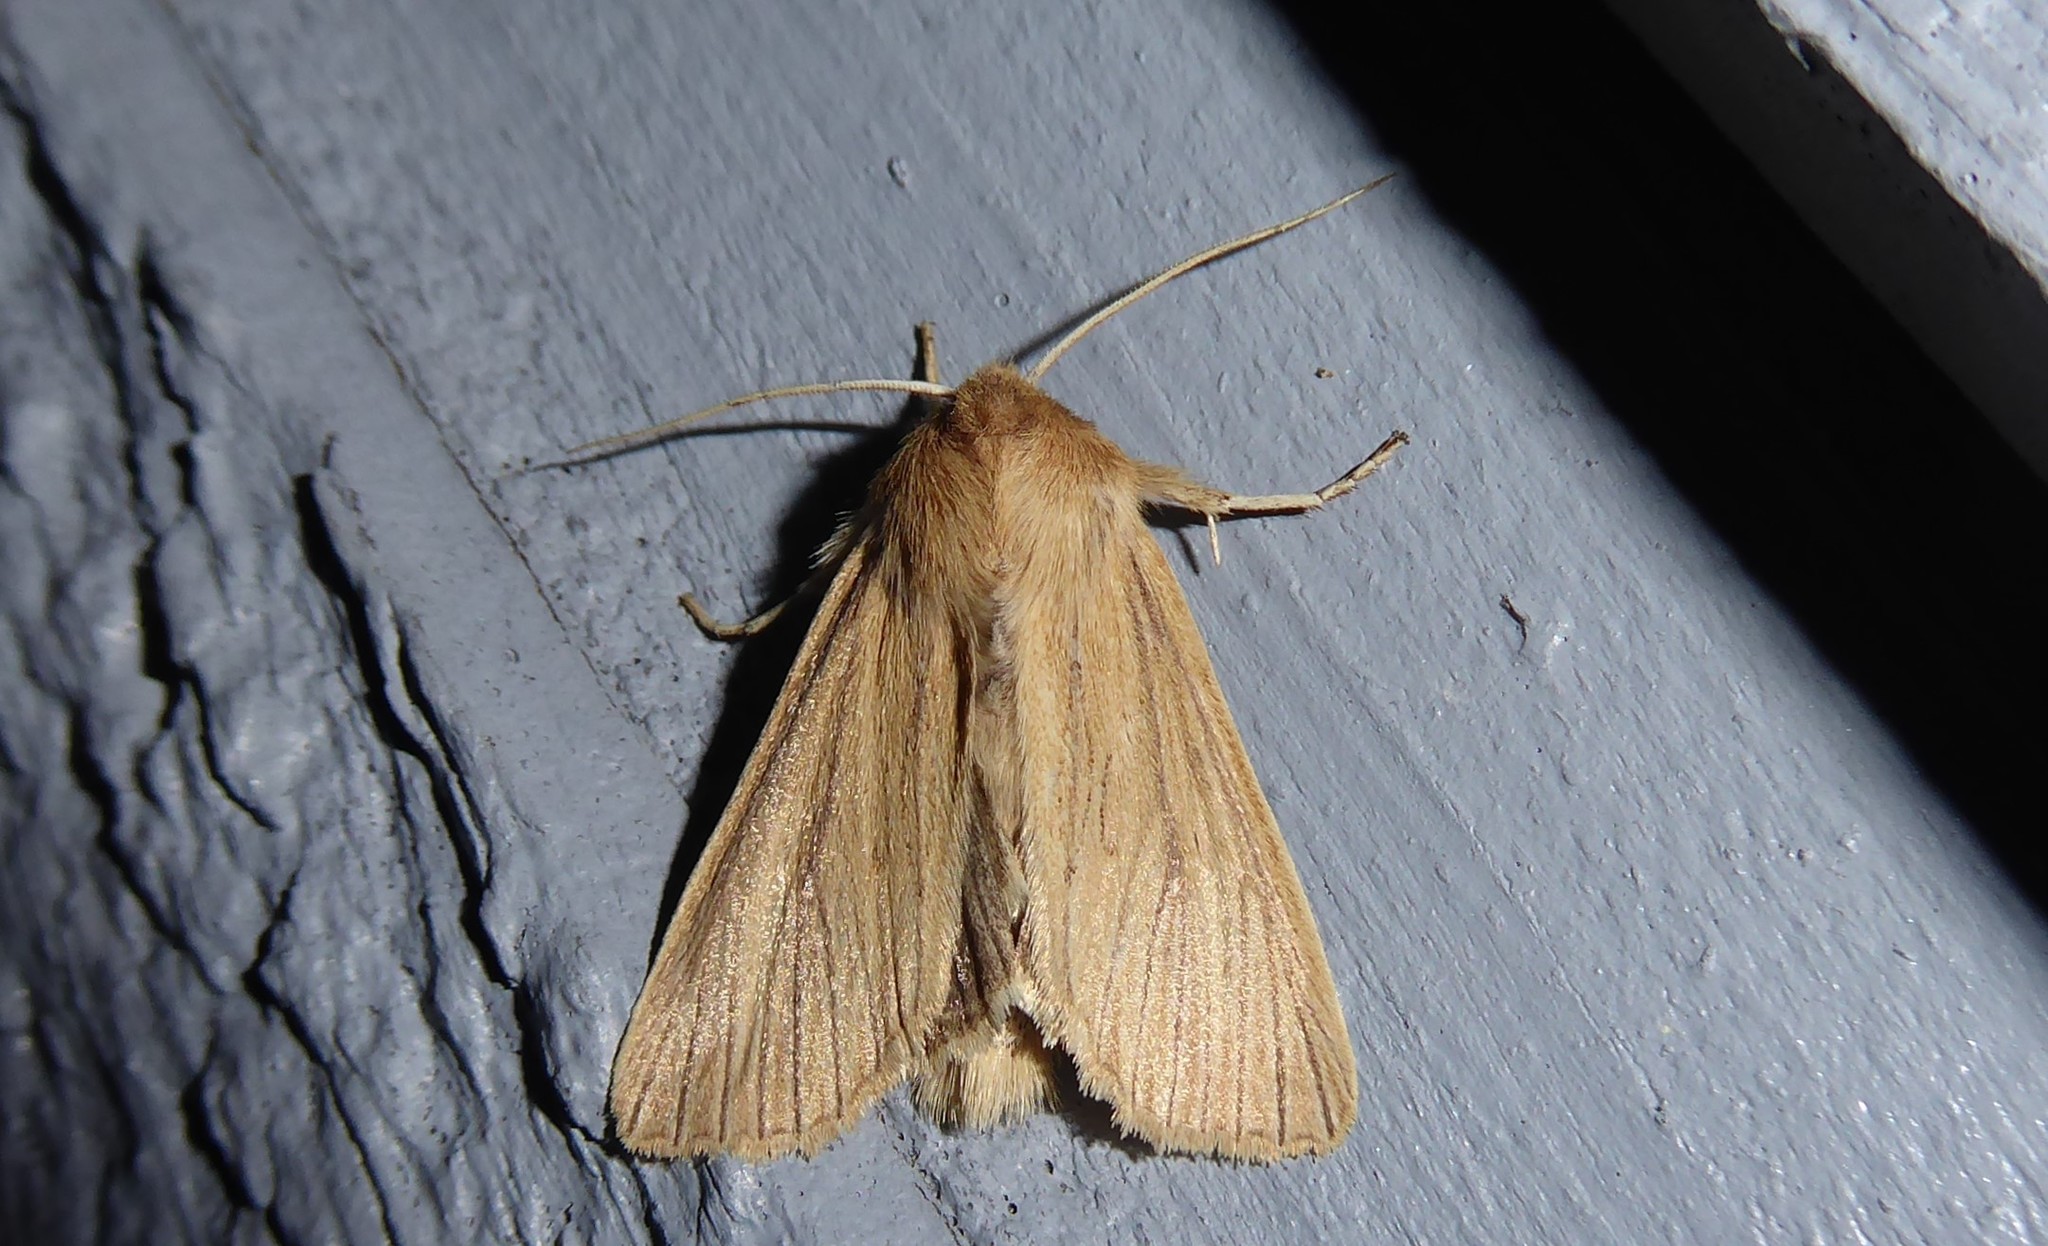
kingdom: Animalia
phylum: Arthropoda
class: Insecta
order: Lepidoptera
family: Noctuidae
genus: Ichneutica
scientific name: Ichneutica arotis
